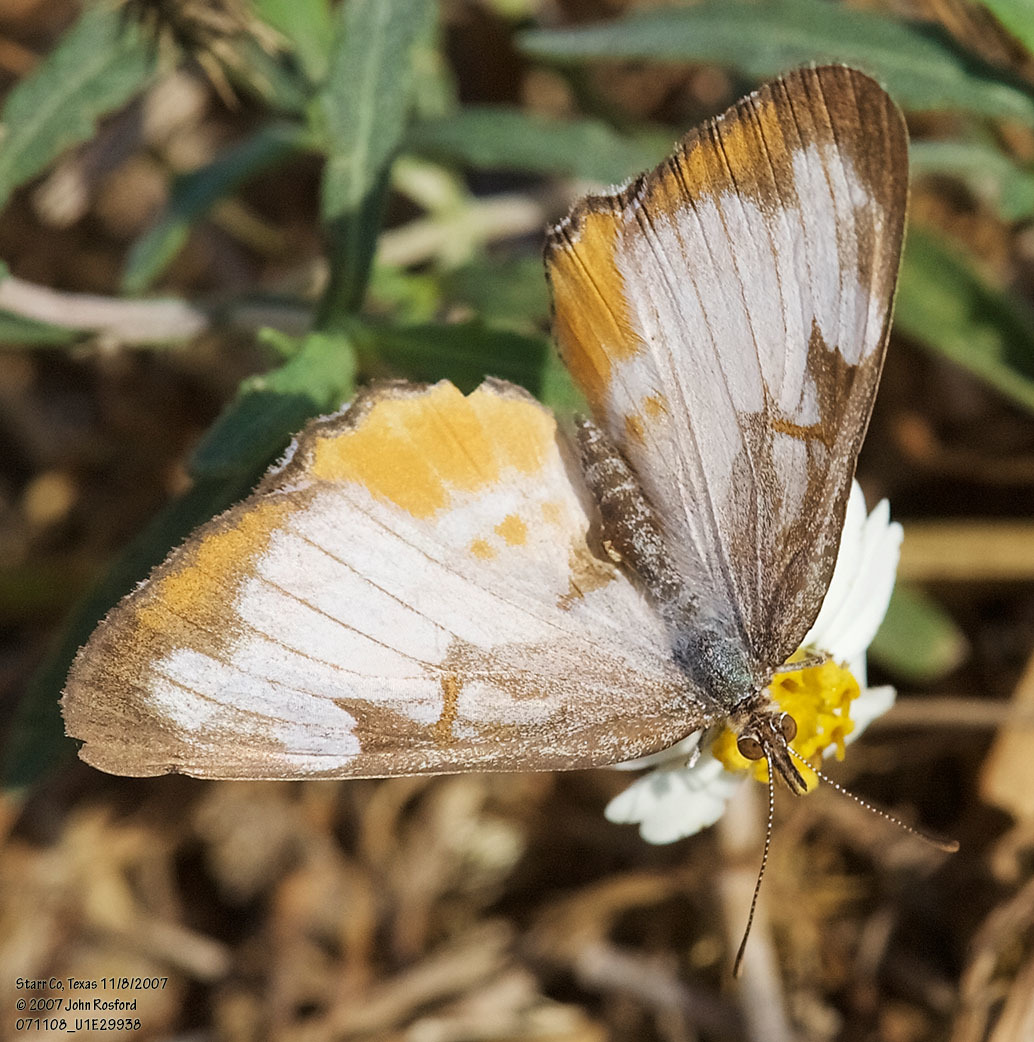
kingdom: Animalia
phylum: Arthropoda
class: Insecta
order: Lepidoptera
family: Nymphalidae
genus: Mestra
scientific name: Mestra amymone
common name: Common mestra
